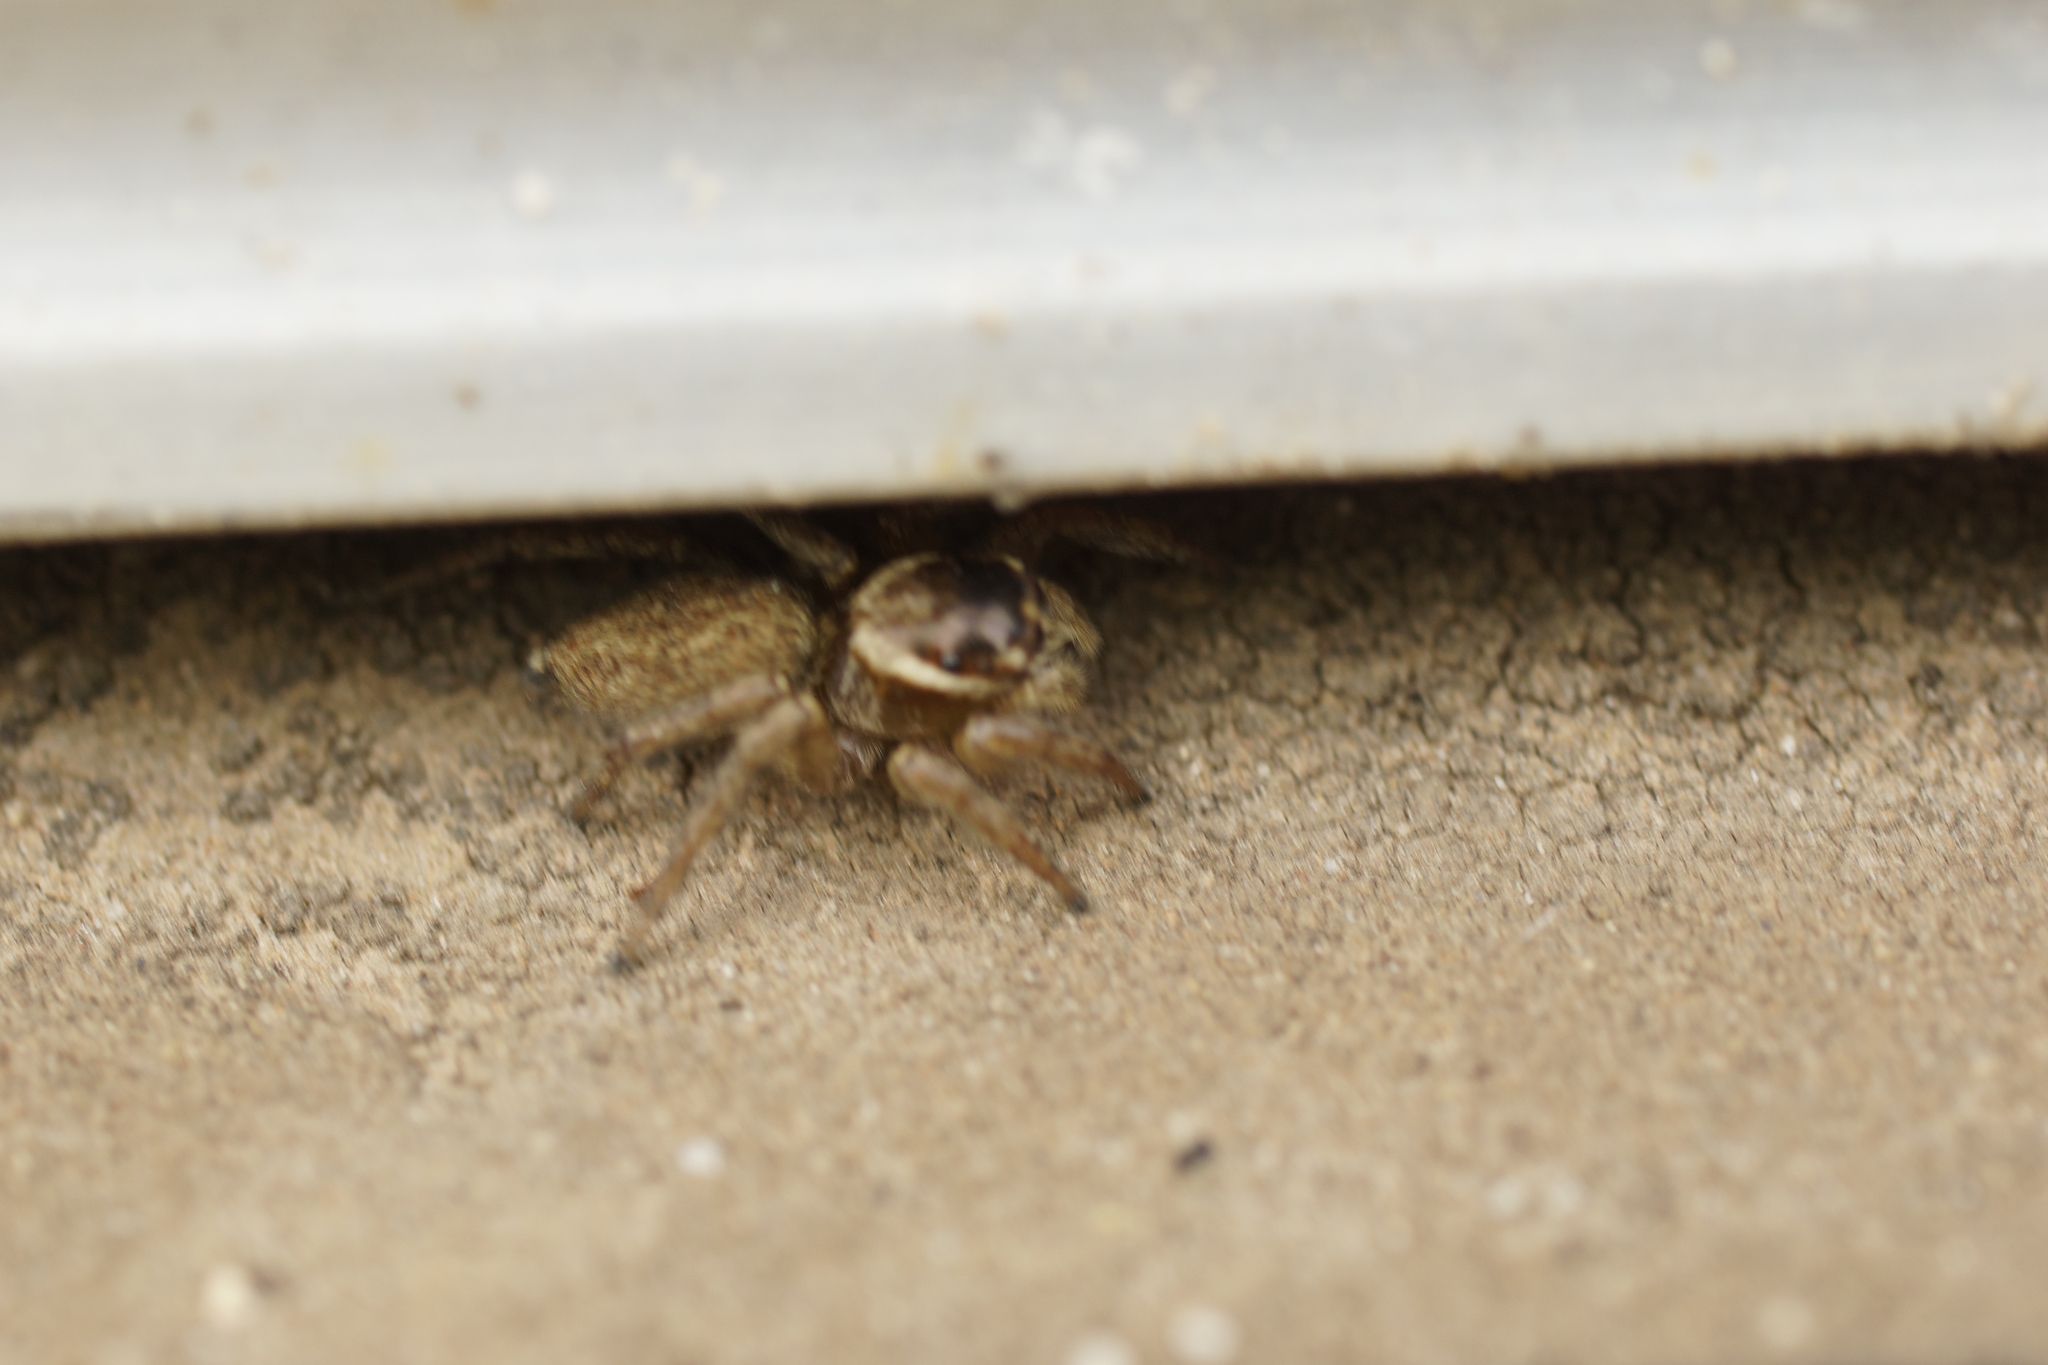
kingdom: Animalia
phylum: Arthropoda
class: Arachnida
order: Araneae
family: Salticidae
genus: Maratus
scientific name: Maratus griseus
